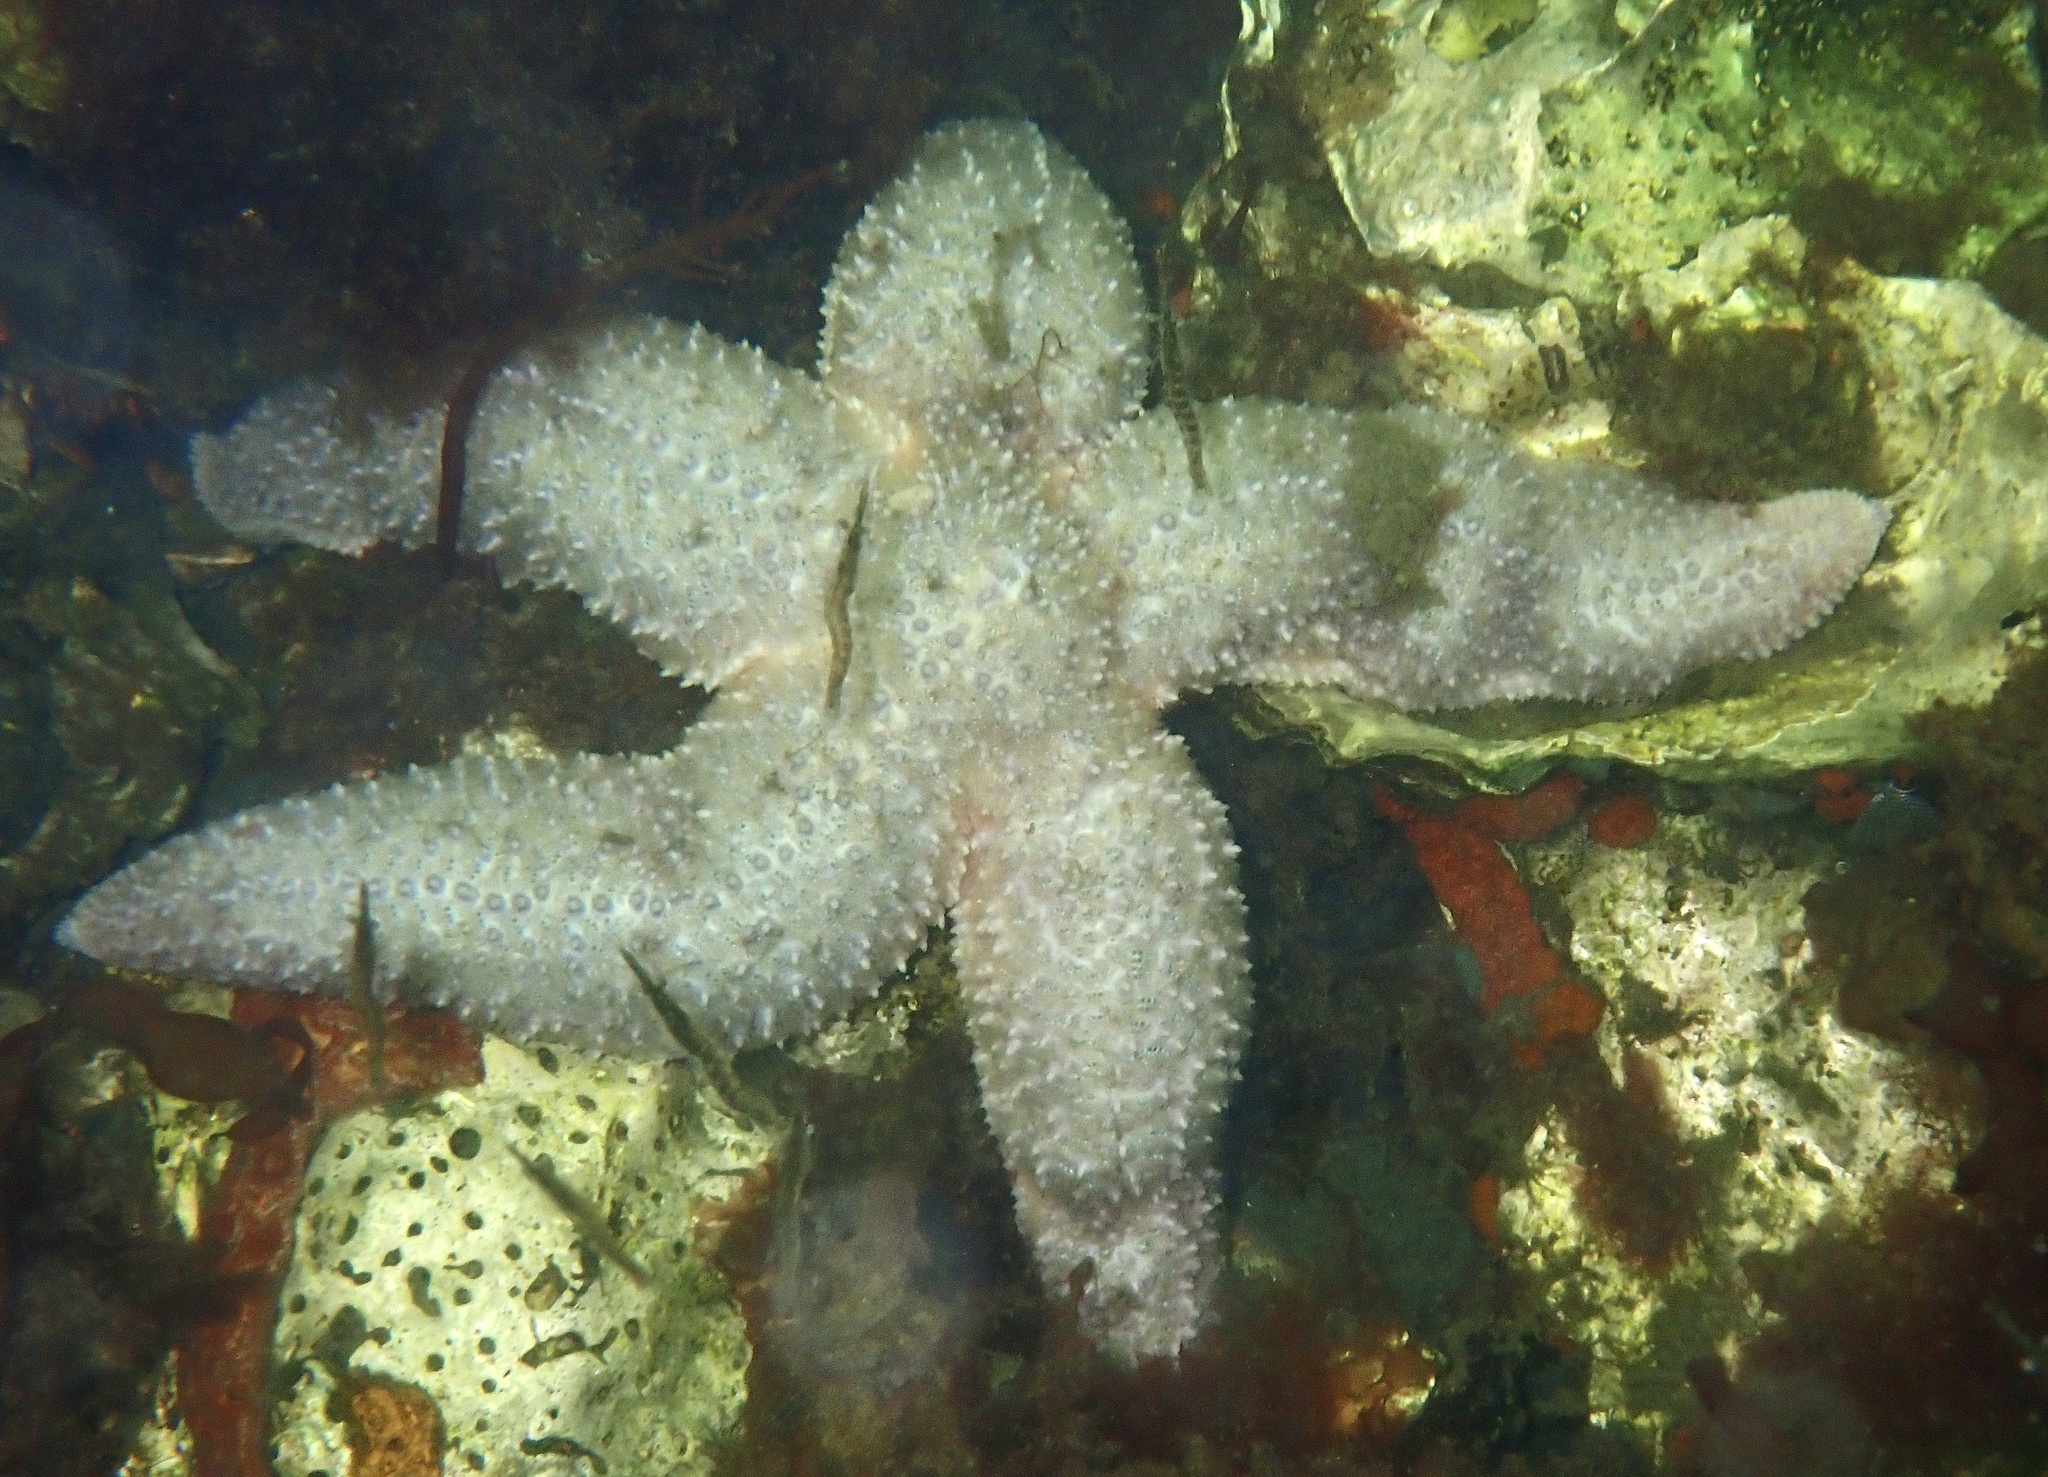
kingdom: Animalia
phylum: Echinodermata
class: Asteroidea
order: Forcipulatida
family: Asteriidae
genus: Asterias
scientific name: Asterias rubens
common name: Common starfish
